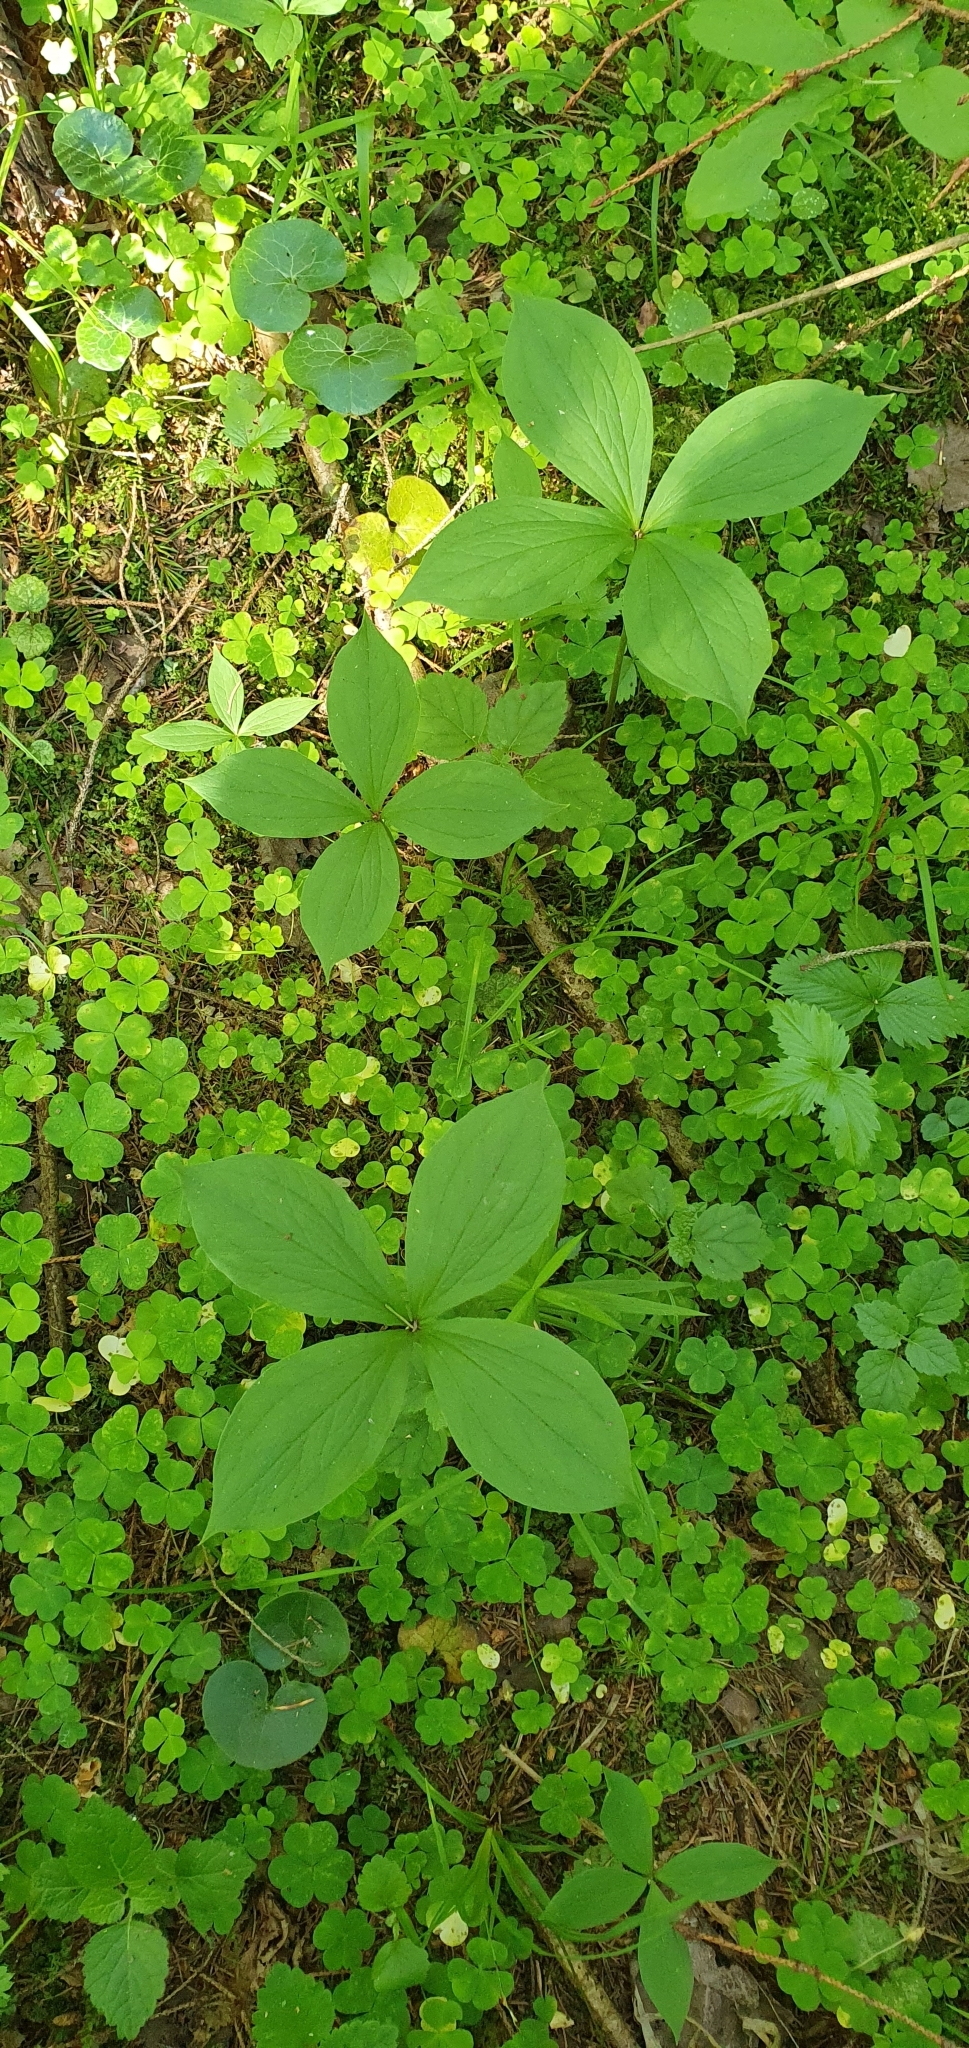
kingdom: Plantae
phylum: Tracheophyta
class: Liliopsida
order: Liliales
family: Melanthiaceae
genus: Paris
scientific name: Paris quadrifolia
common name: Herb-paris
